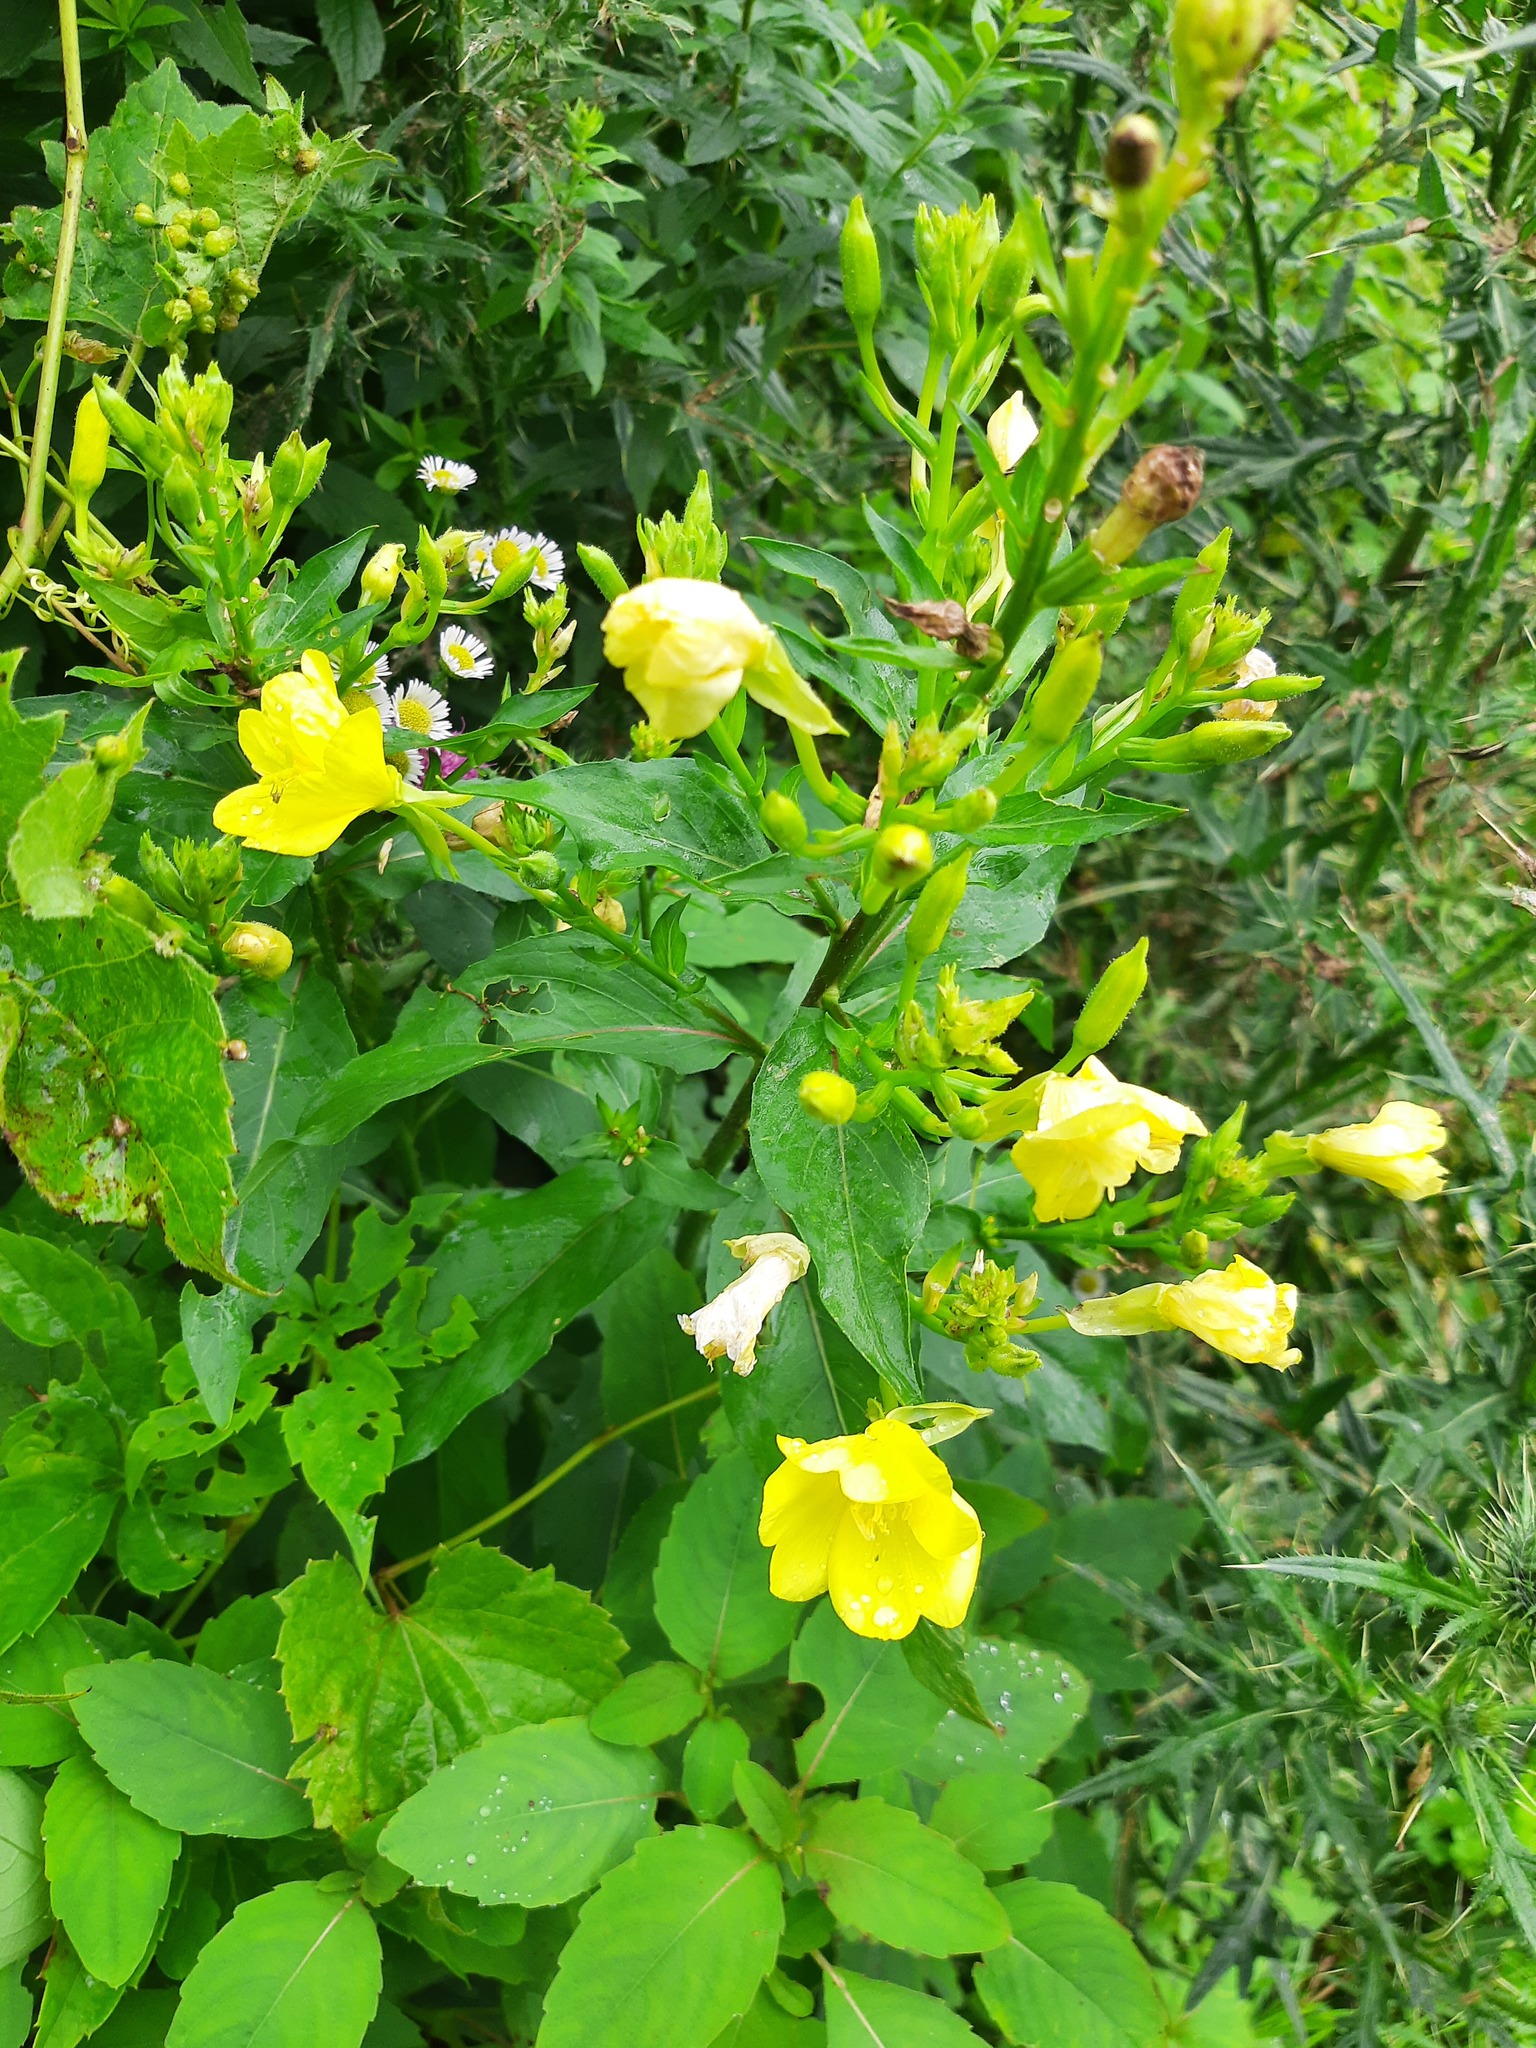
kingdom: Plantae
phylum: Tracheophyta
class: Magnoliopsida
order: Myrtales
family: Onagraceae
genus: Oenothera
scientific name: Oenothera biennis
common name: Common evening-primrose
